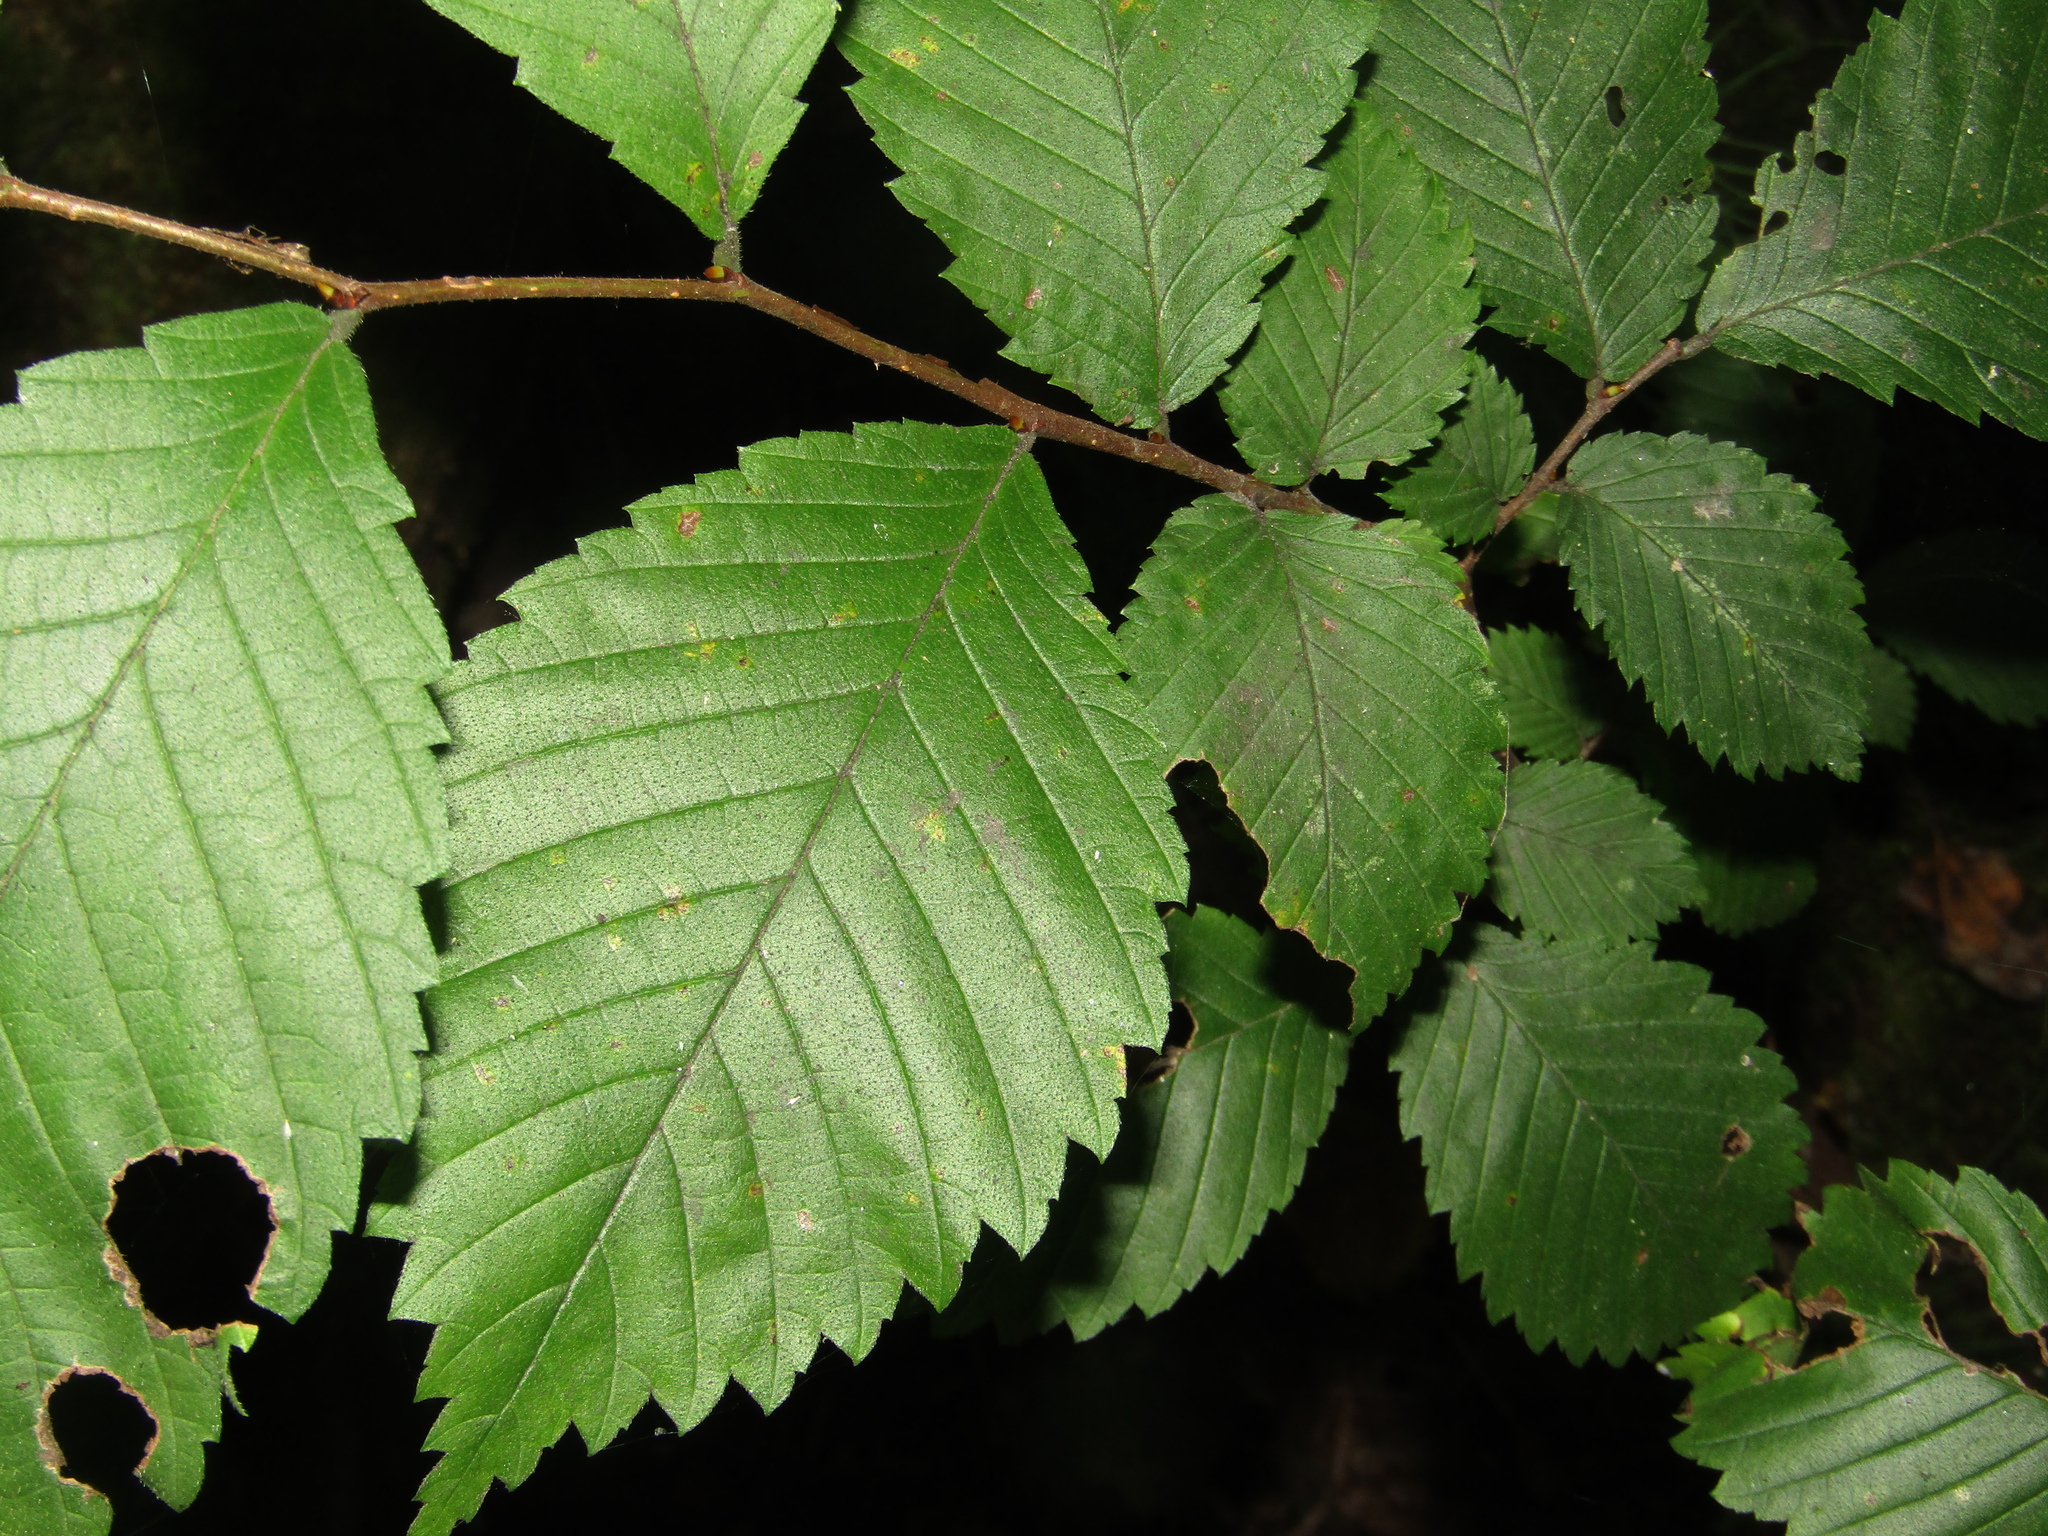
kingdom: Plantae
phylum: Tracheophyta
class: Magnoliopsida
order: Rosales
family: Ulmaceae
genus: Ulmus
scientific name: Ulmus laevis
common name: European white-elm
